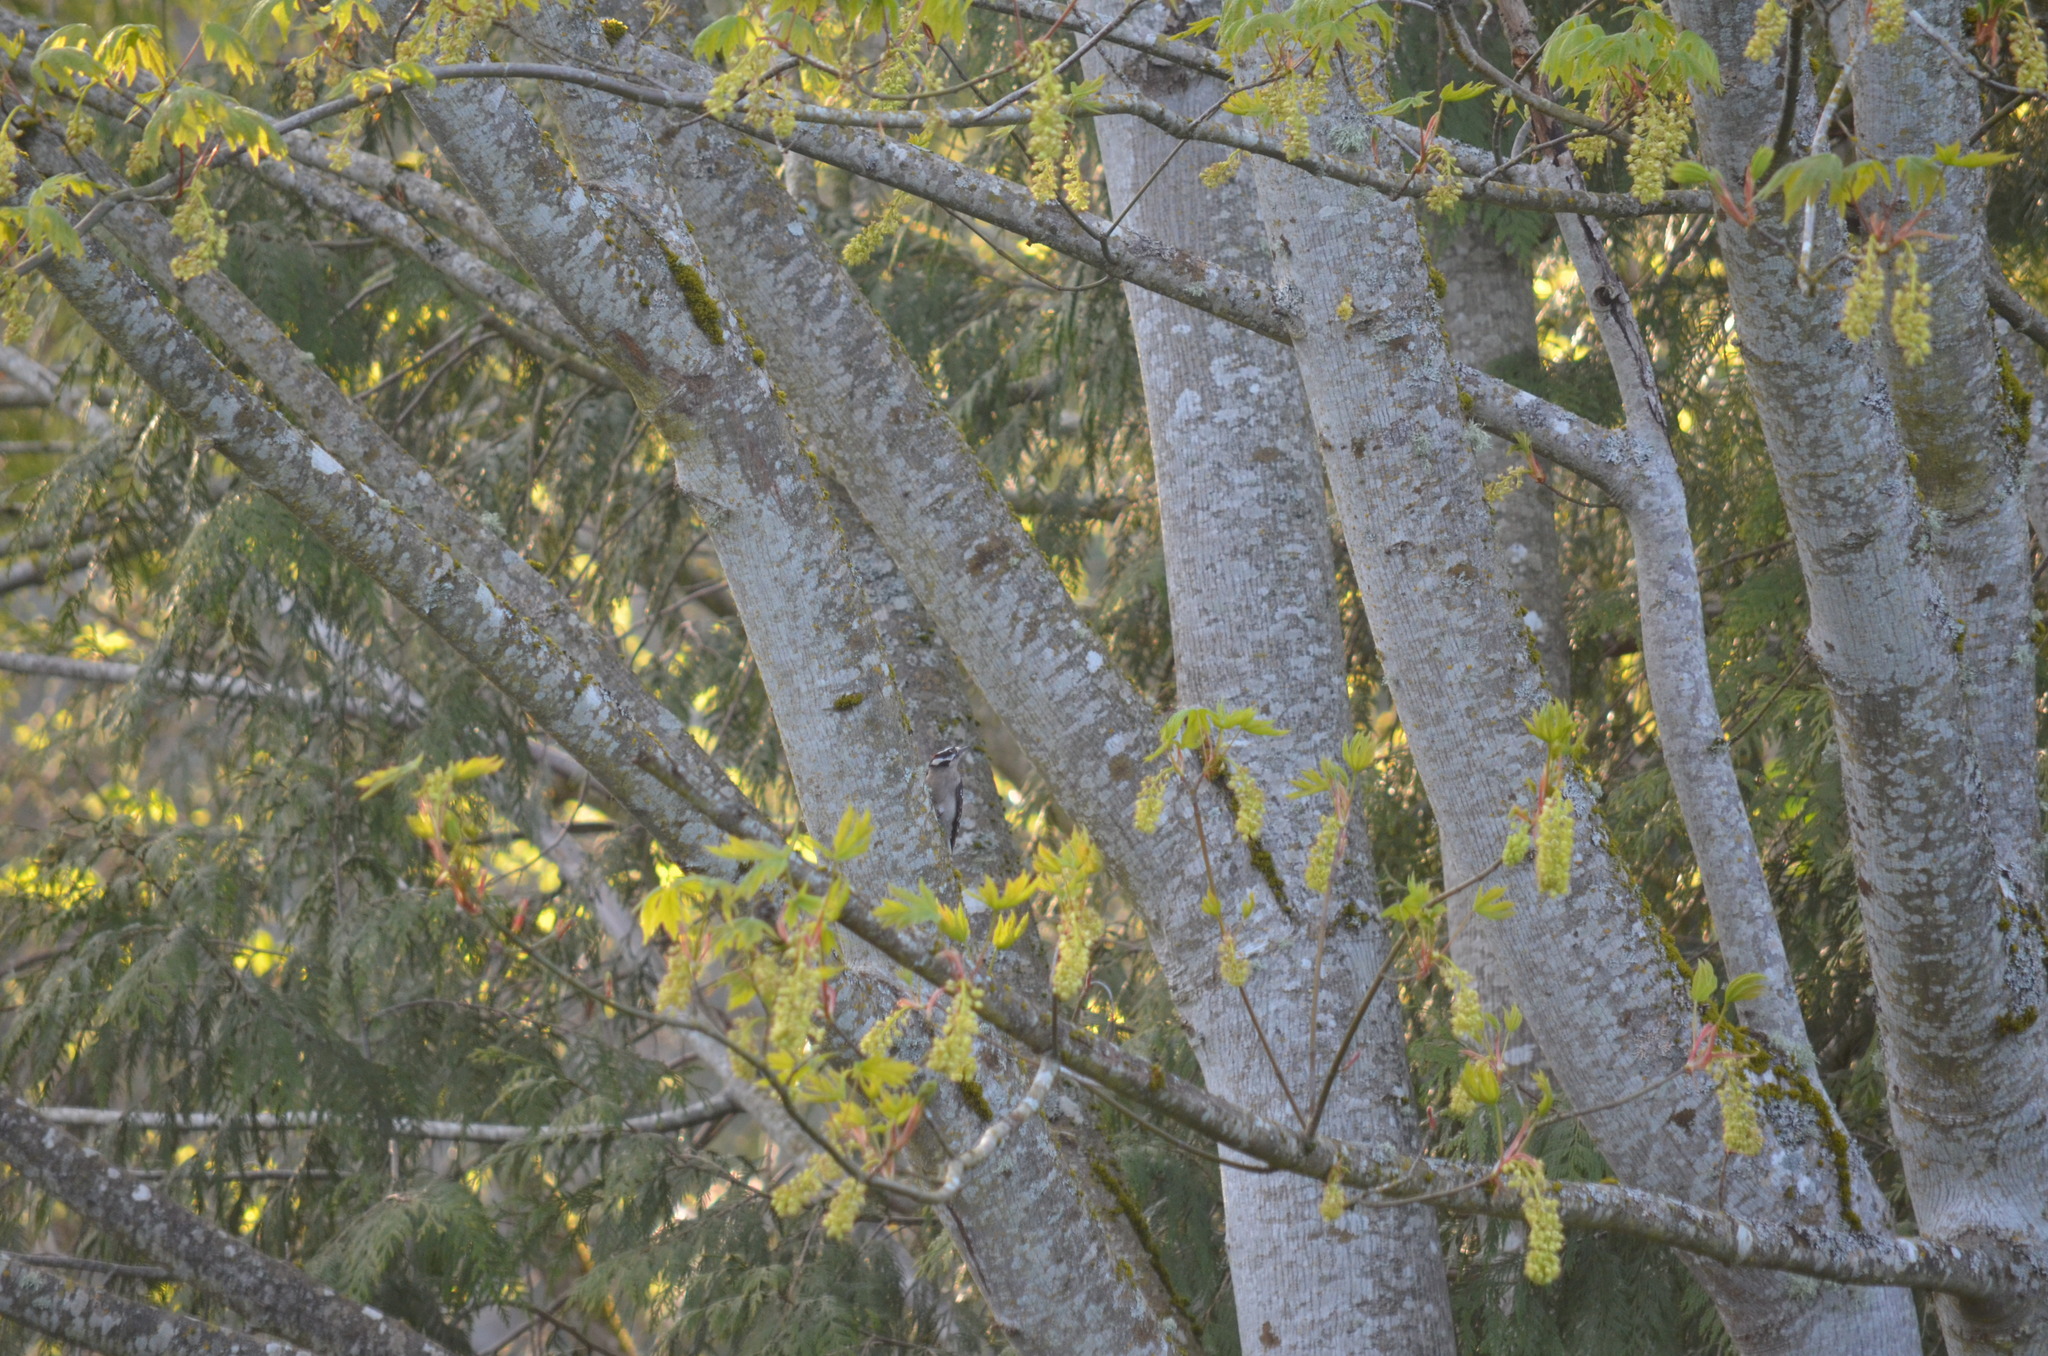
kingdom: Animalia
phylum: Chordata
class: Aves
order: Piciformes
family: Picidae
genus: Dryobates
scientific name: Dryobates pubescens
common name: Downy woodpecker
